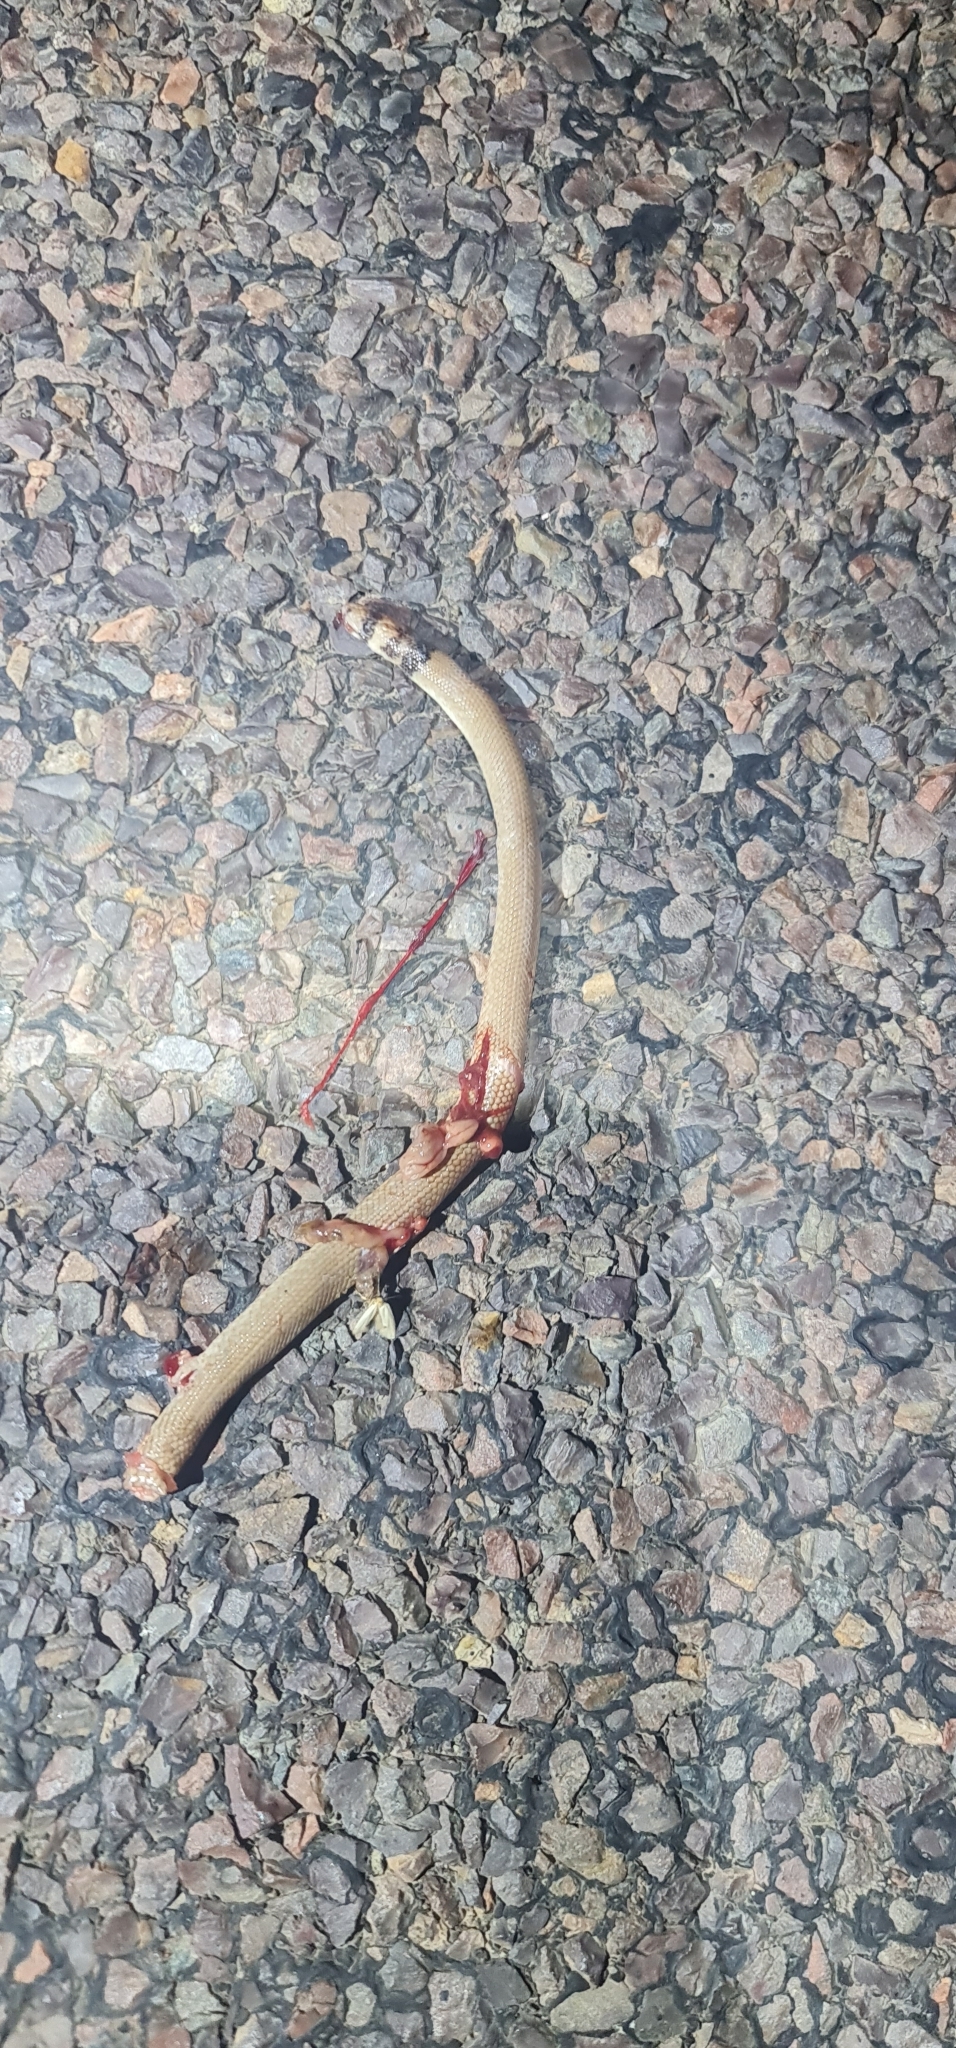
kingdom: Animalia
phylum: Chordata
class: Squamata
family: Pygopodidae
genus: Pygopus
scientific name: Pygopus nigriceps
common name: Black-headed scaly foot
